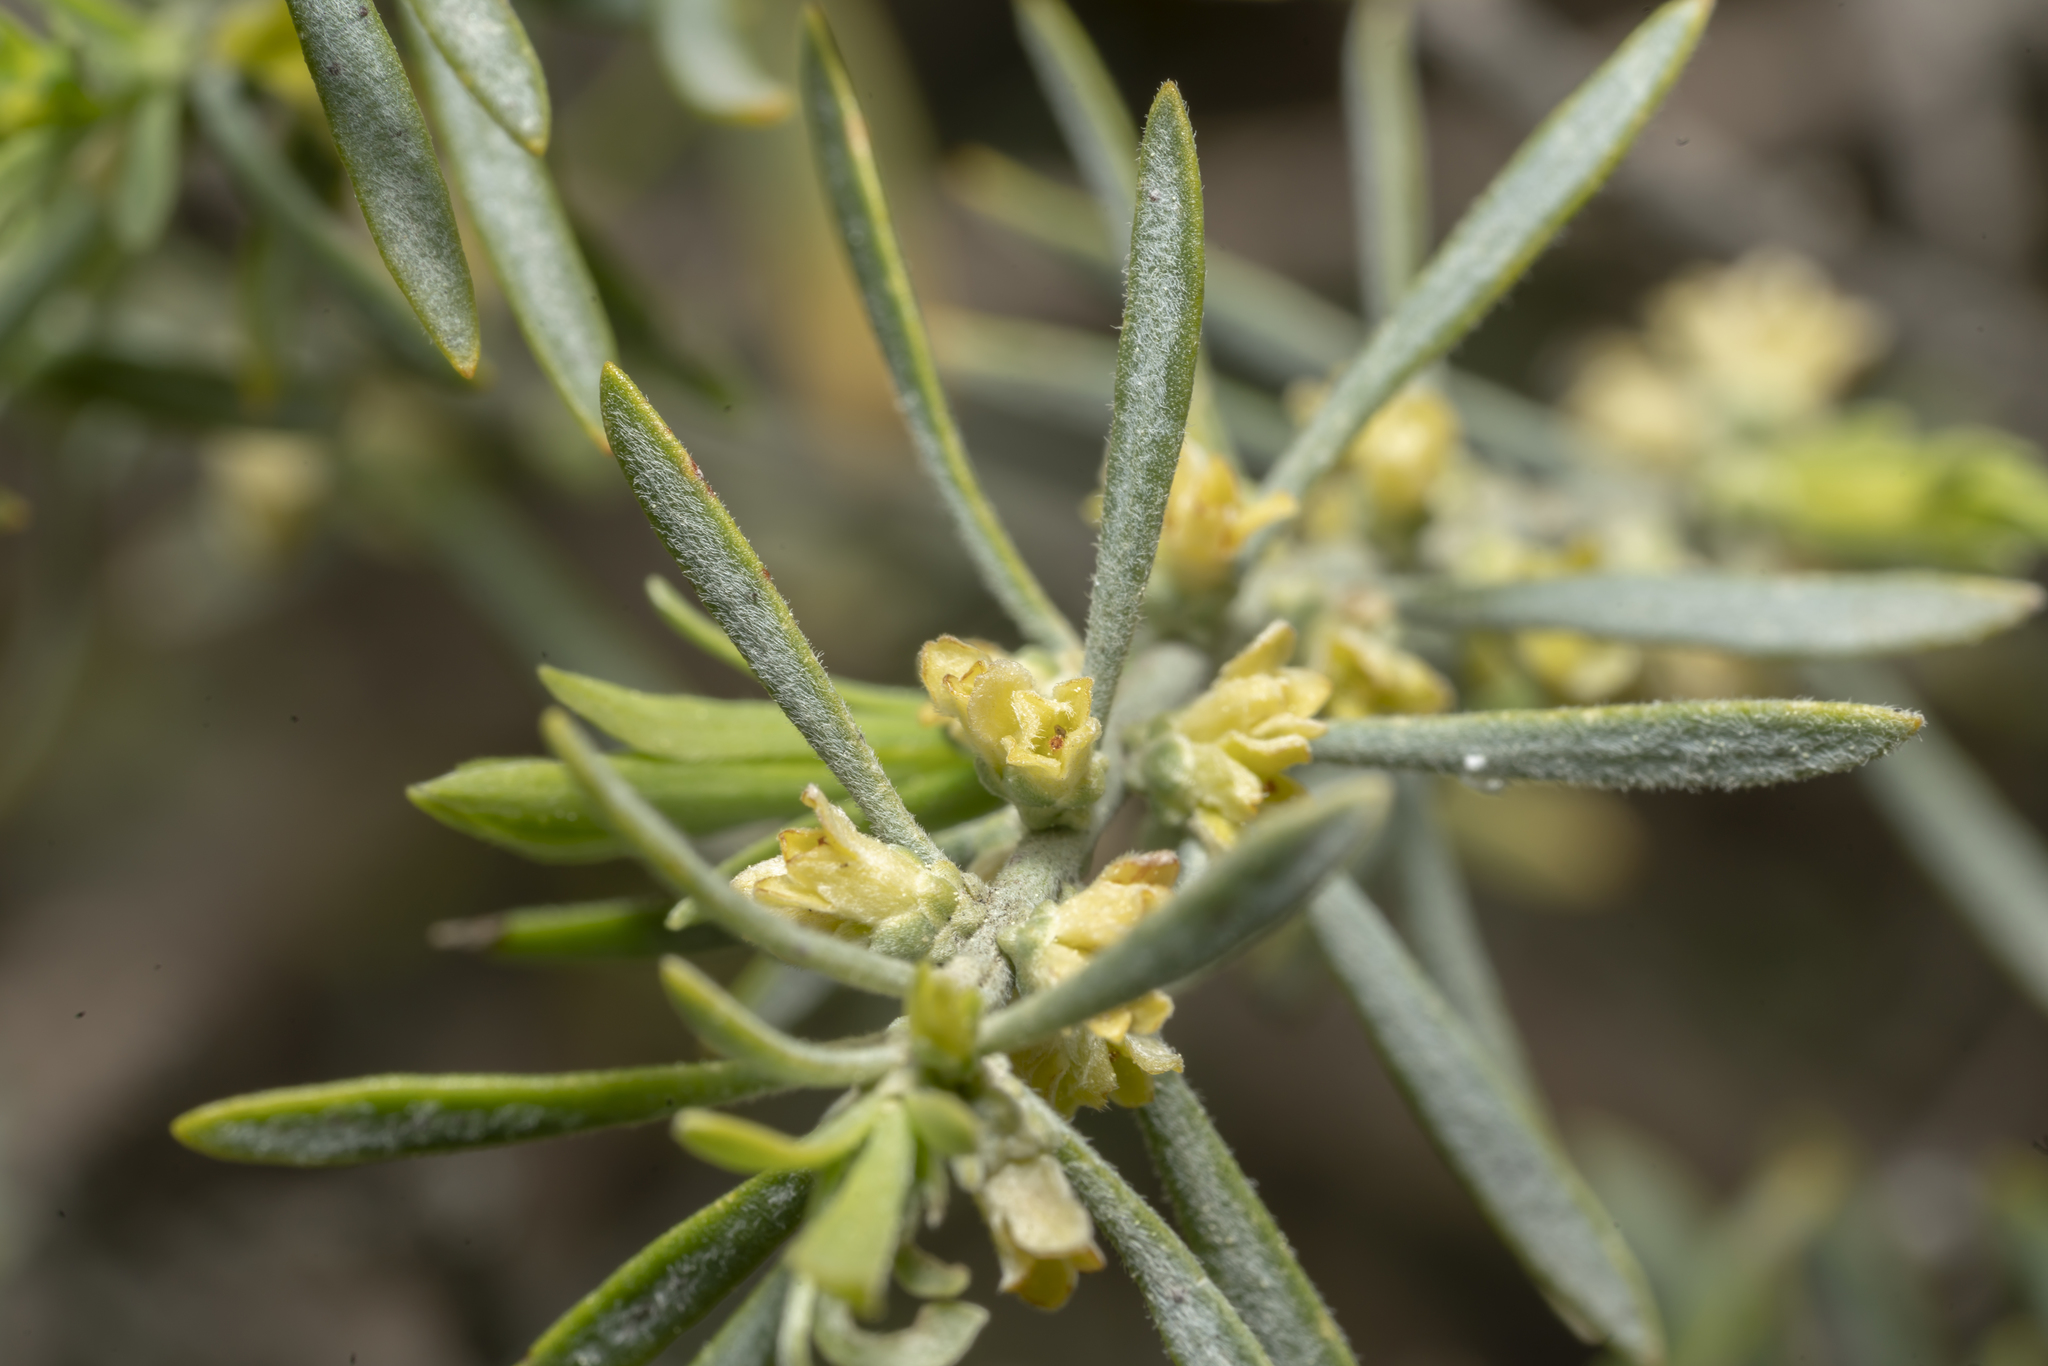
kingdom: Plantae
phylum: Tracheophyta
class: Magnoliopsida
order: Malvales
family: Thymelaeaceae
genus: Thymelaea
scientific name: Thymelaea tartonraira
